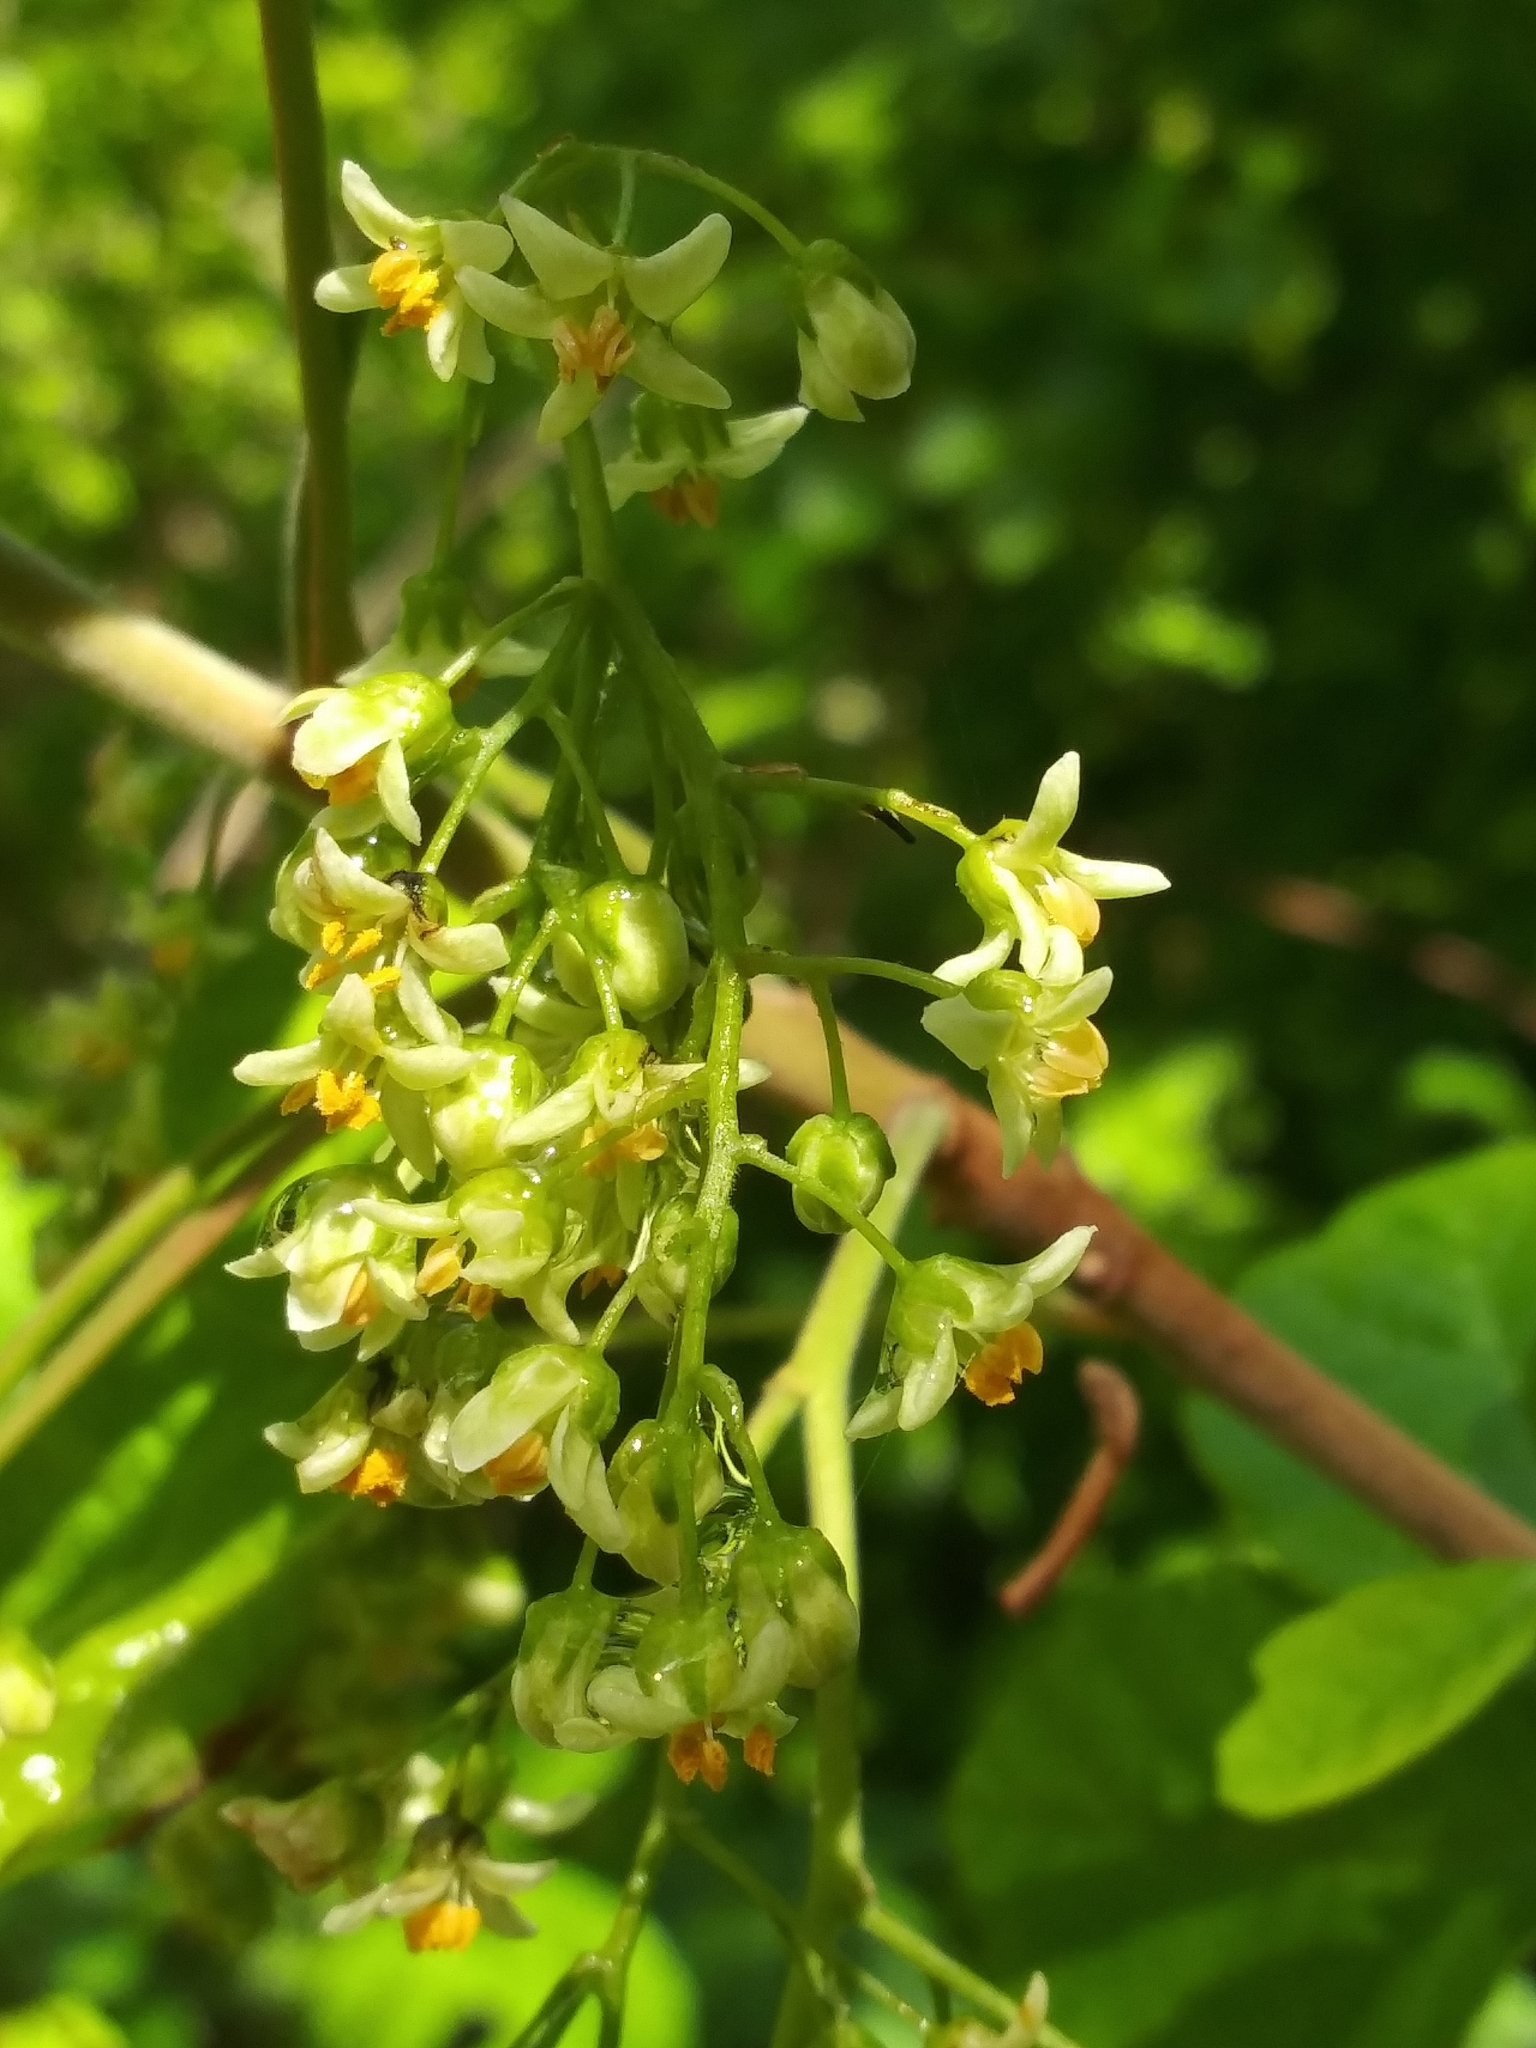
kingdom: Plantae
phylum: Tracheophyta
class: Magnoliopsida
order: Sapindales
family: Anacardiaceae
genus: Toxicodendron
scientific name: Toxicodendron diversilobum
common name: Pacific poison-oak
